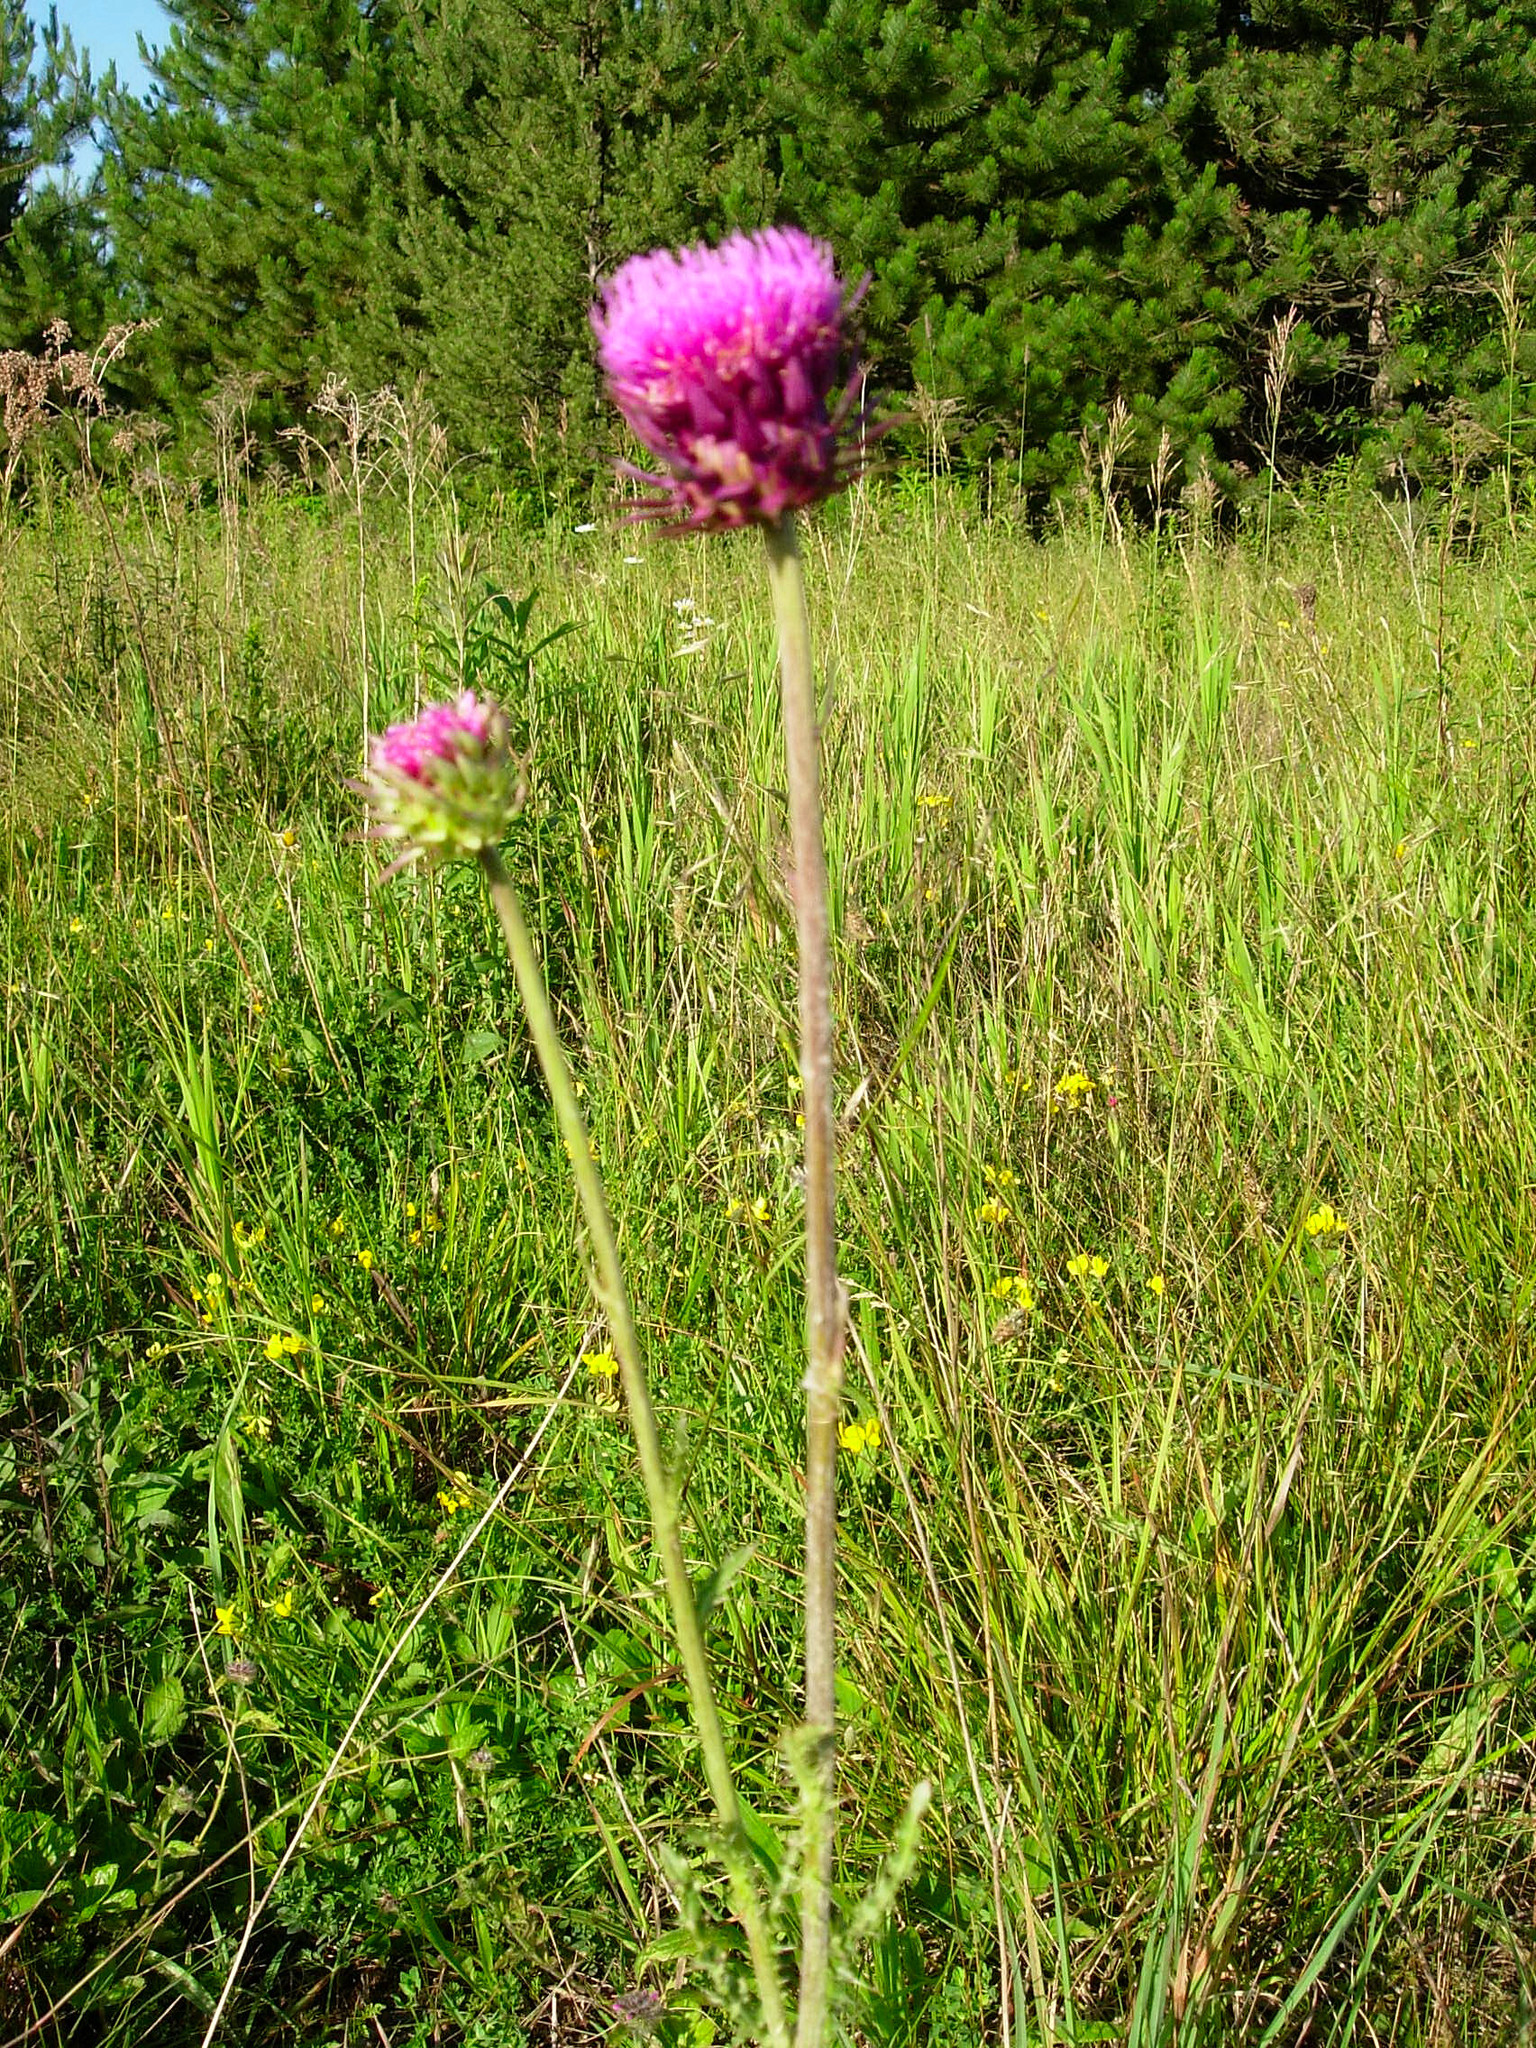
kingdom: Plantae
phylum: Tracheophyta
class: Magnoliopsida
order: Asterales
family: Asteraceae
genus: Carduus
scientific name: Carduus nutans
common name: Musk thistle
